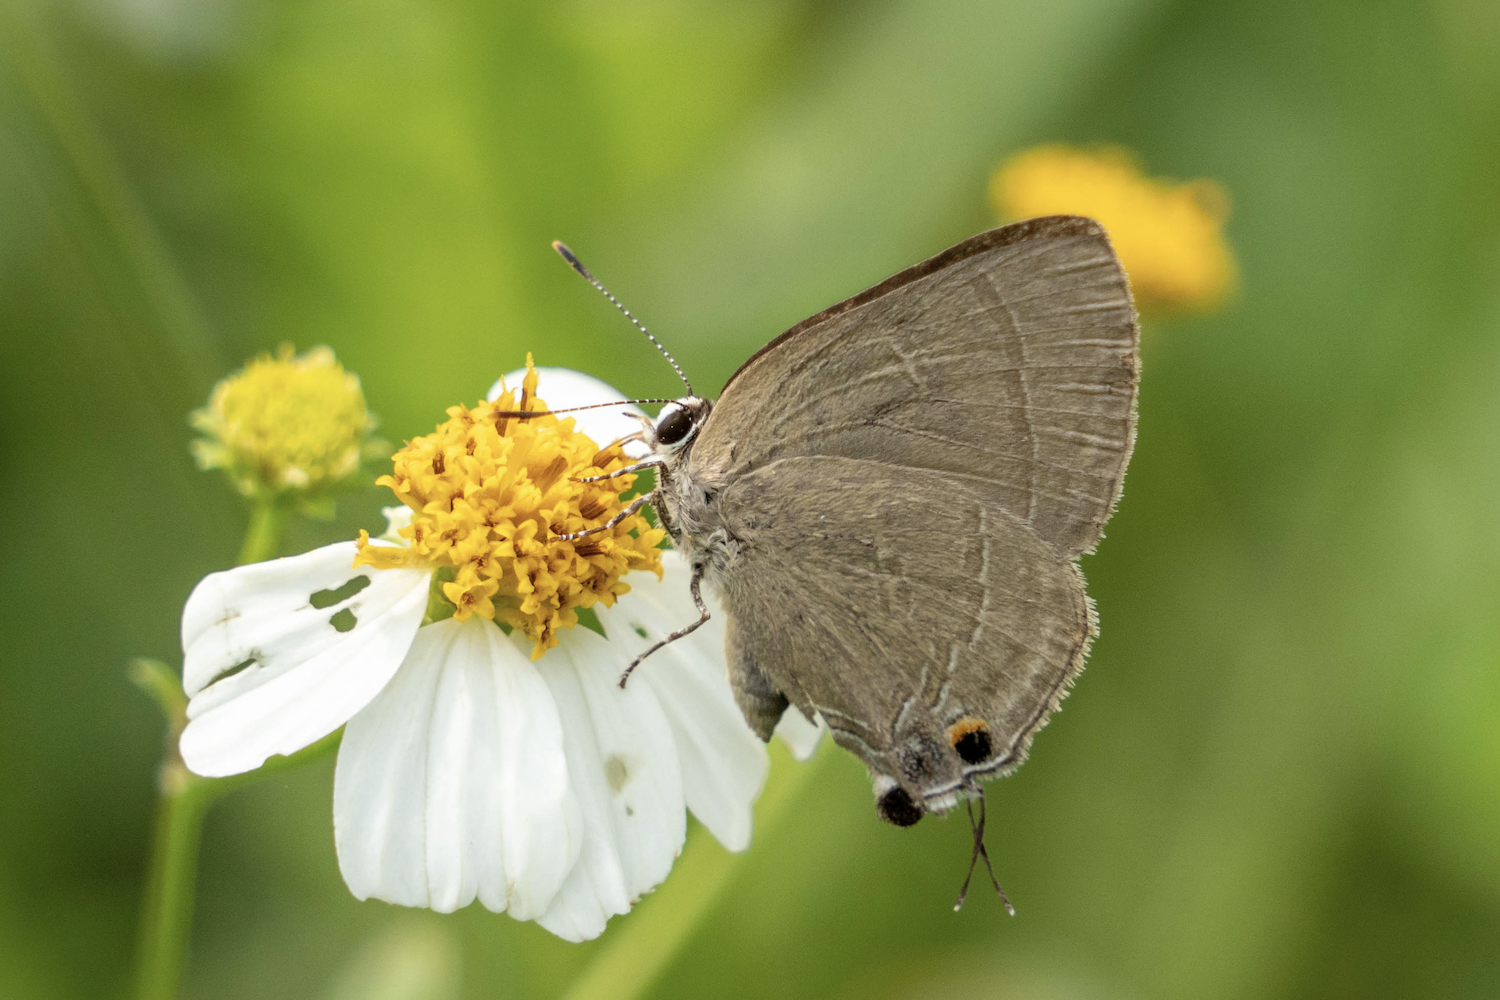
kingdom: Animalia
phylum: Arthropoda
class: Insecta
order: Lepidoptera
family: Lycaenidae
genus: Rapala
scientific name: Rapala manea
